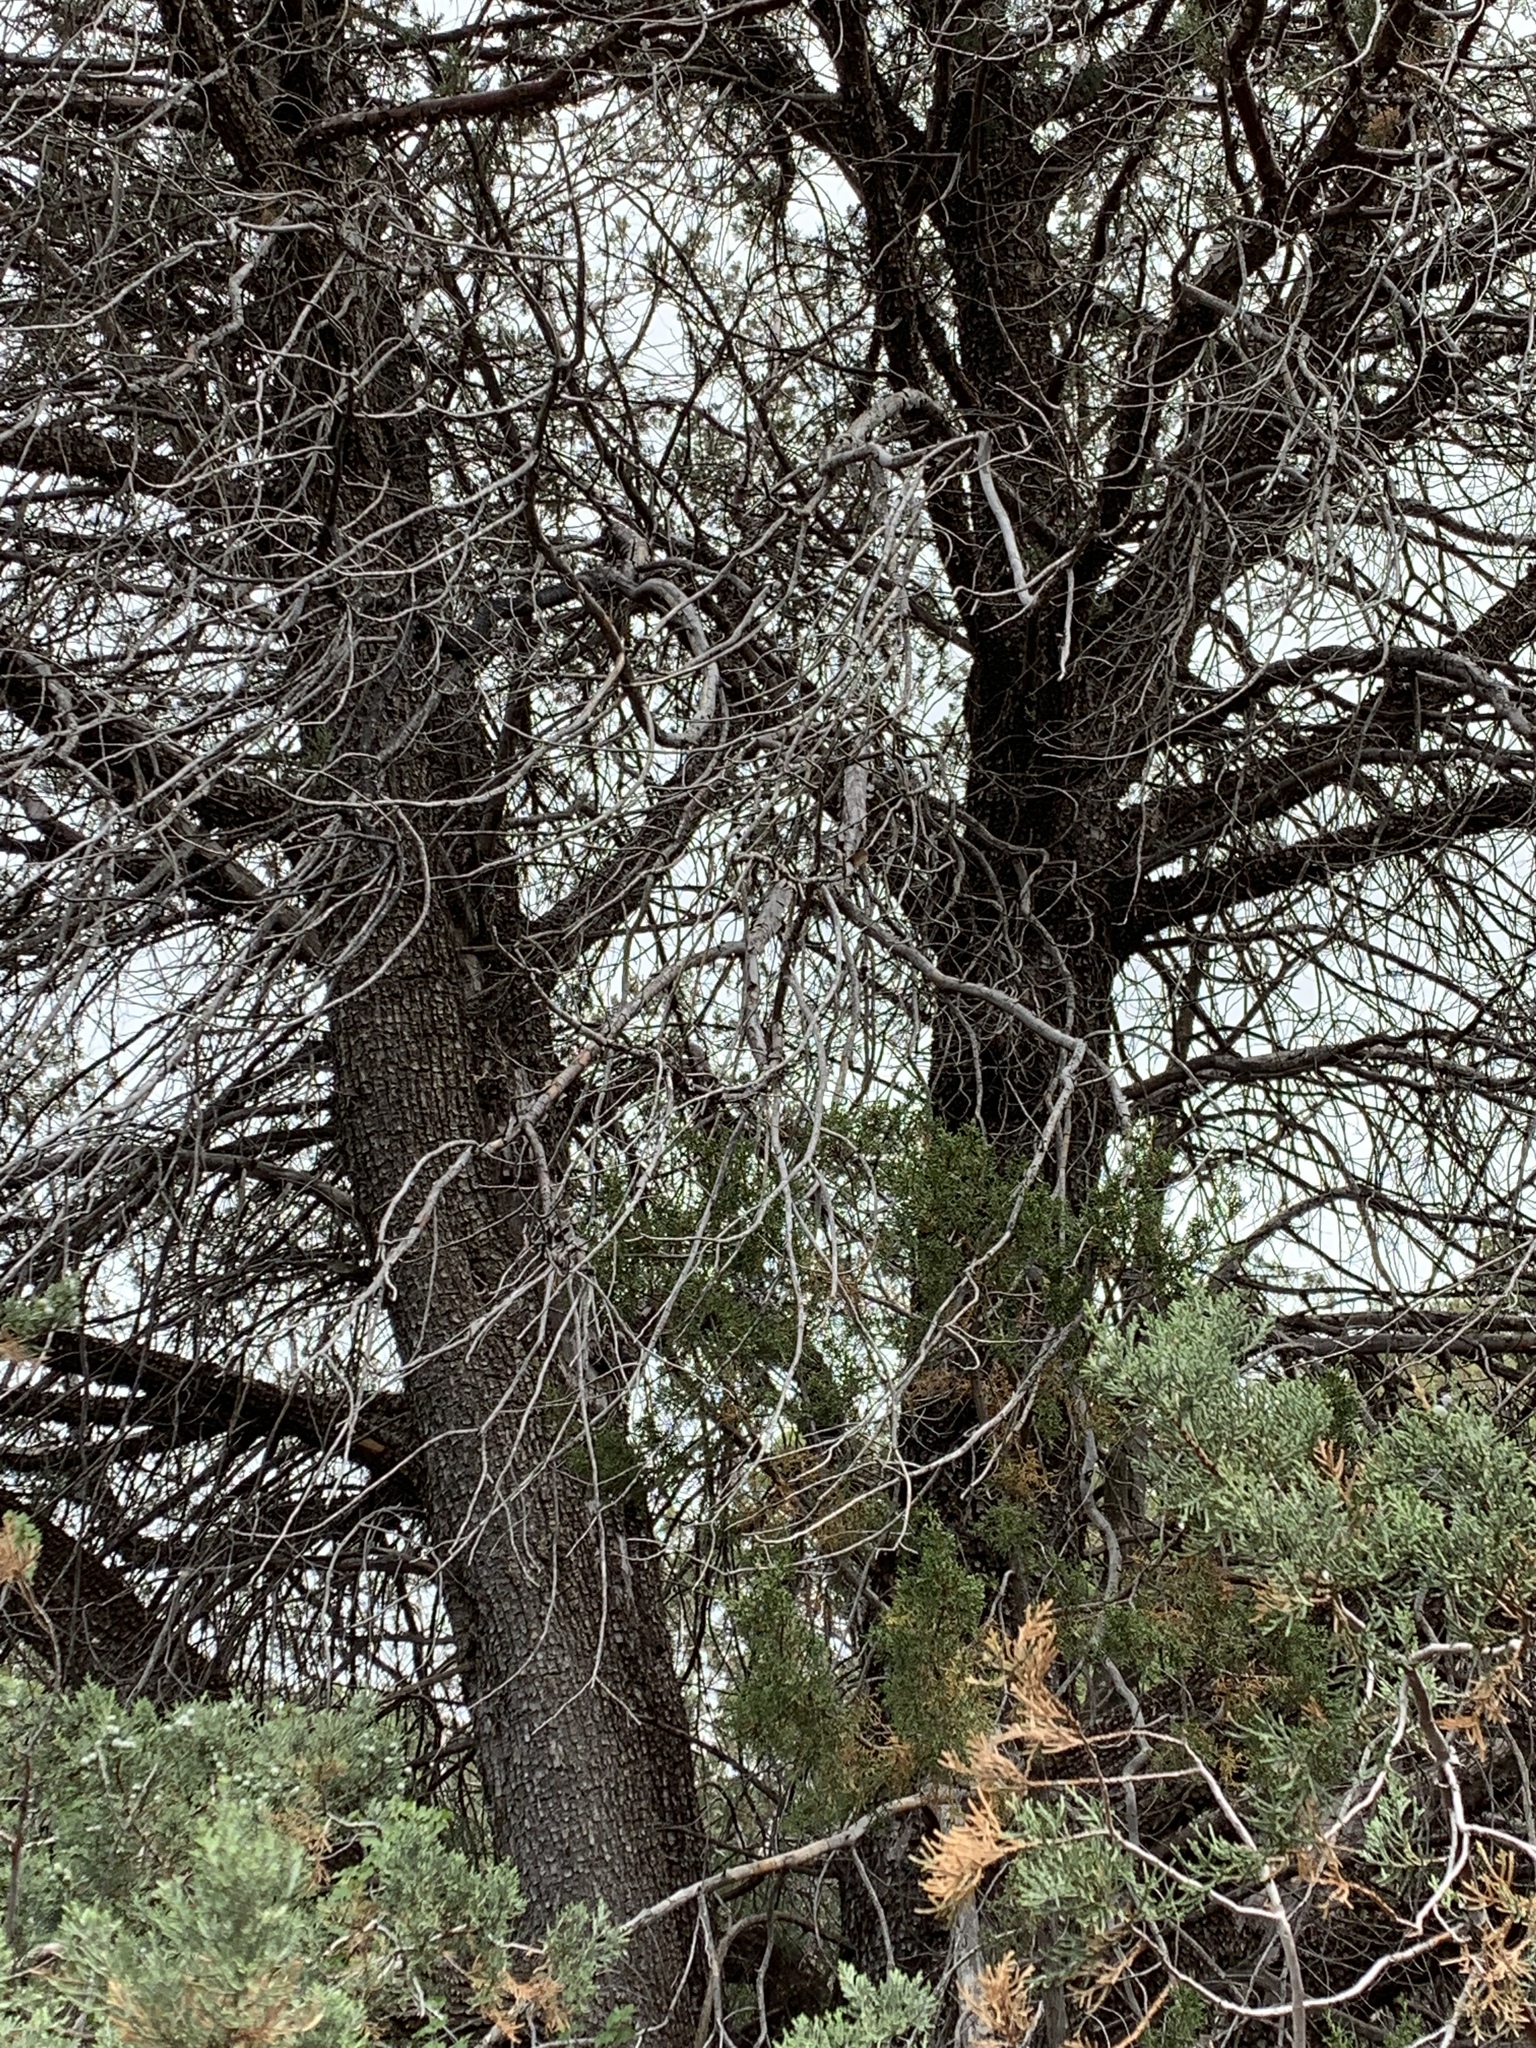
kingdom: Plantae
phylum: Tracheophyta
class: Pinopsida
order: Pinales
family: Cupressaceae
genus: Juniperus
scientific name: Juniperus deppeana
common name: Alligator juniper
